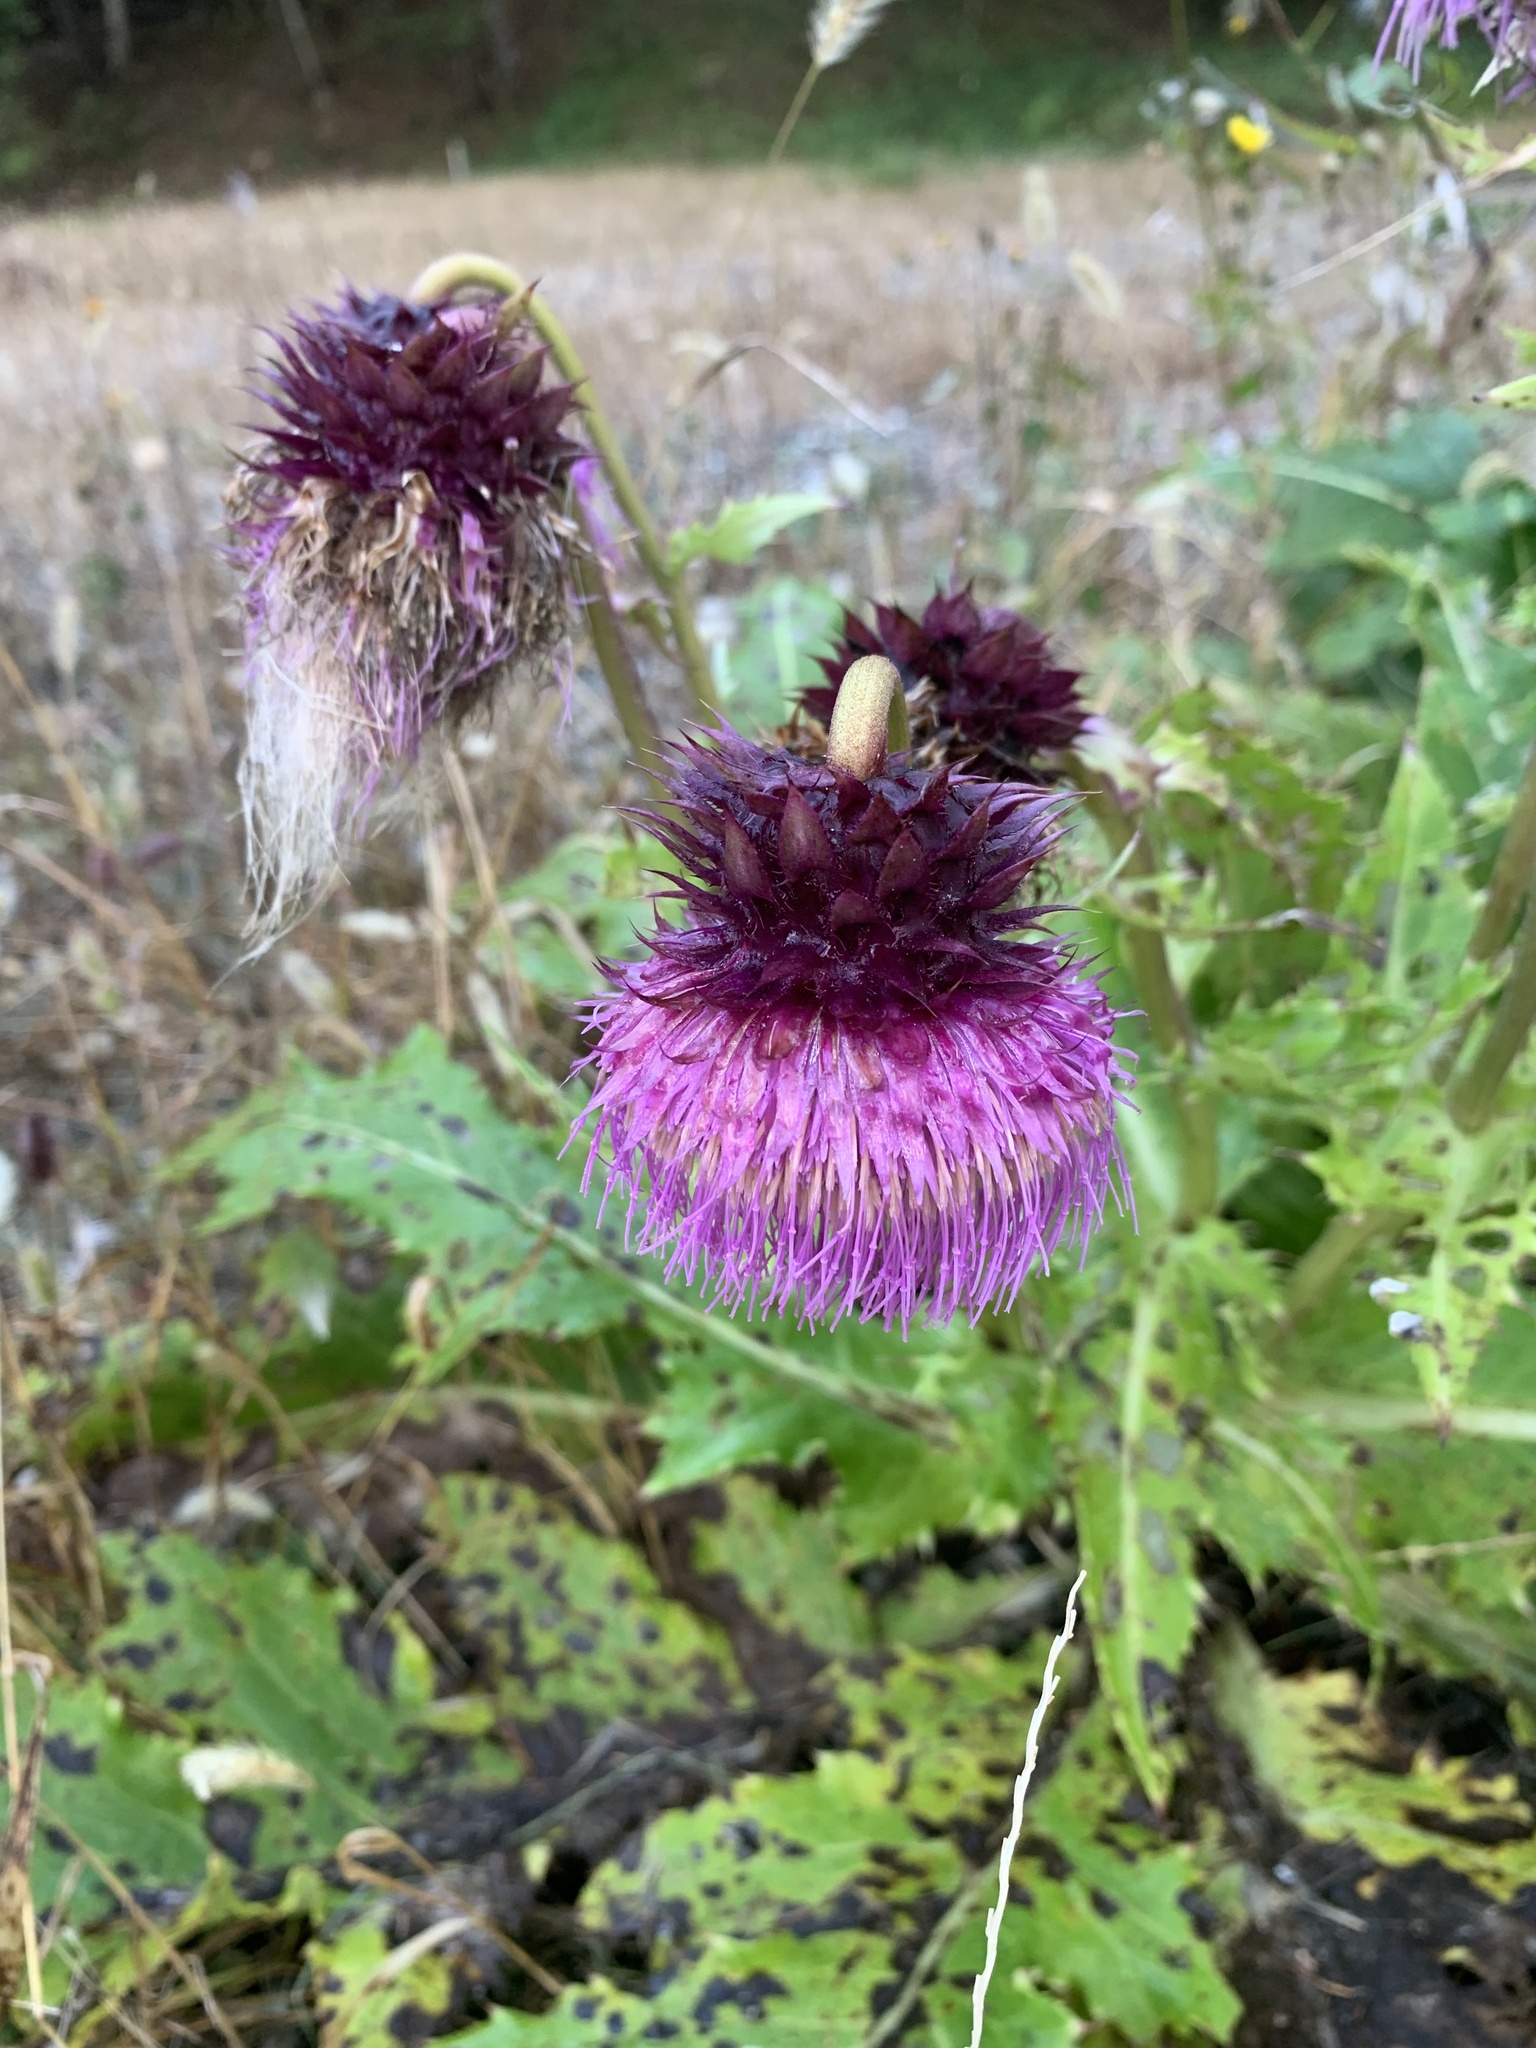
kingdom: Plantae
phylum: Tracheophyta
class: Magnoliopsida
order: Asterales
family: Asteraceae
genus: Cirsium
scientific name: Cirsium purpuratum
